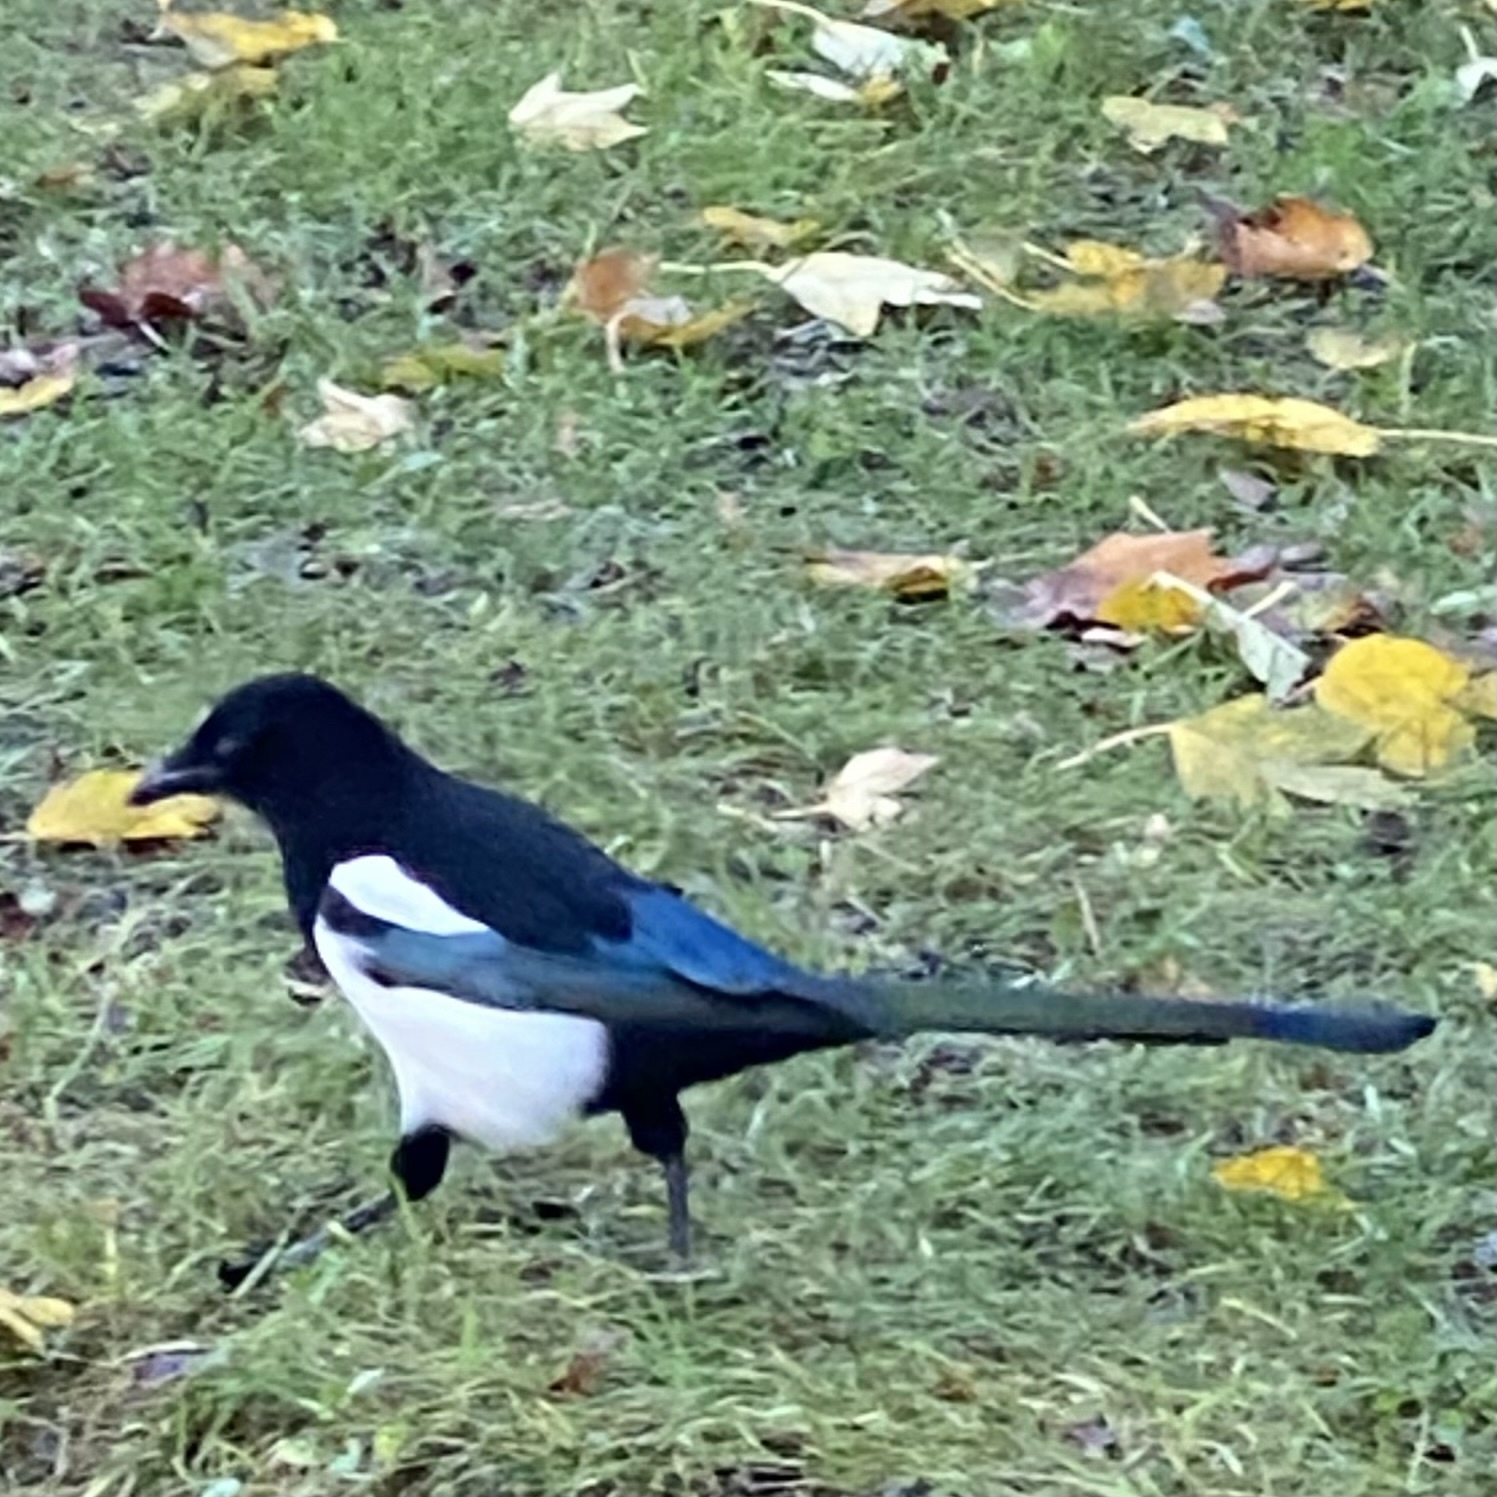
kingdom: Animalia
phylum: Chordata
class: Aves
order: Passeriformes
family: Corvidae
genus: Pica
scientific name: Pica pica
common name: Eurasian magpie
